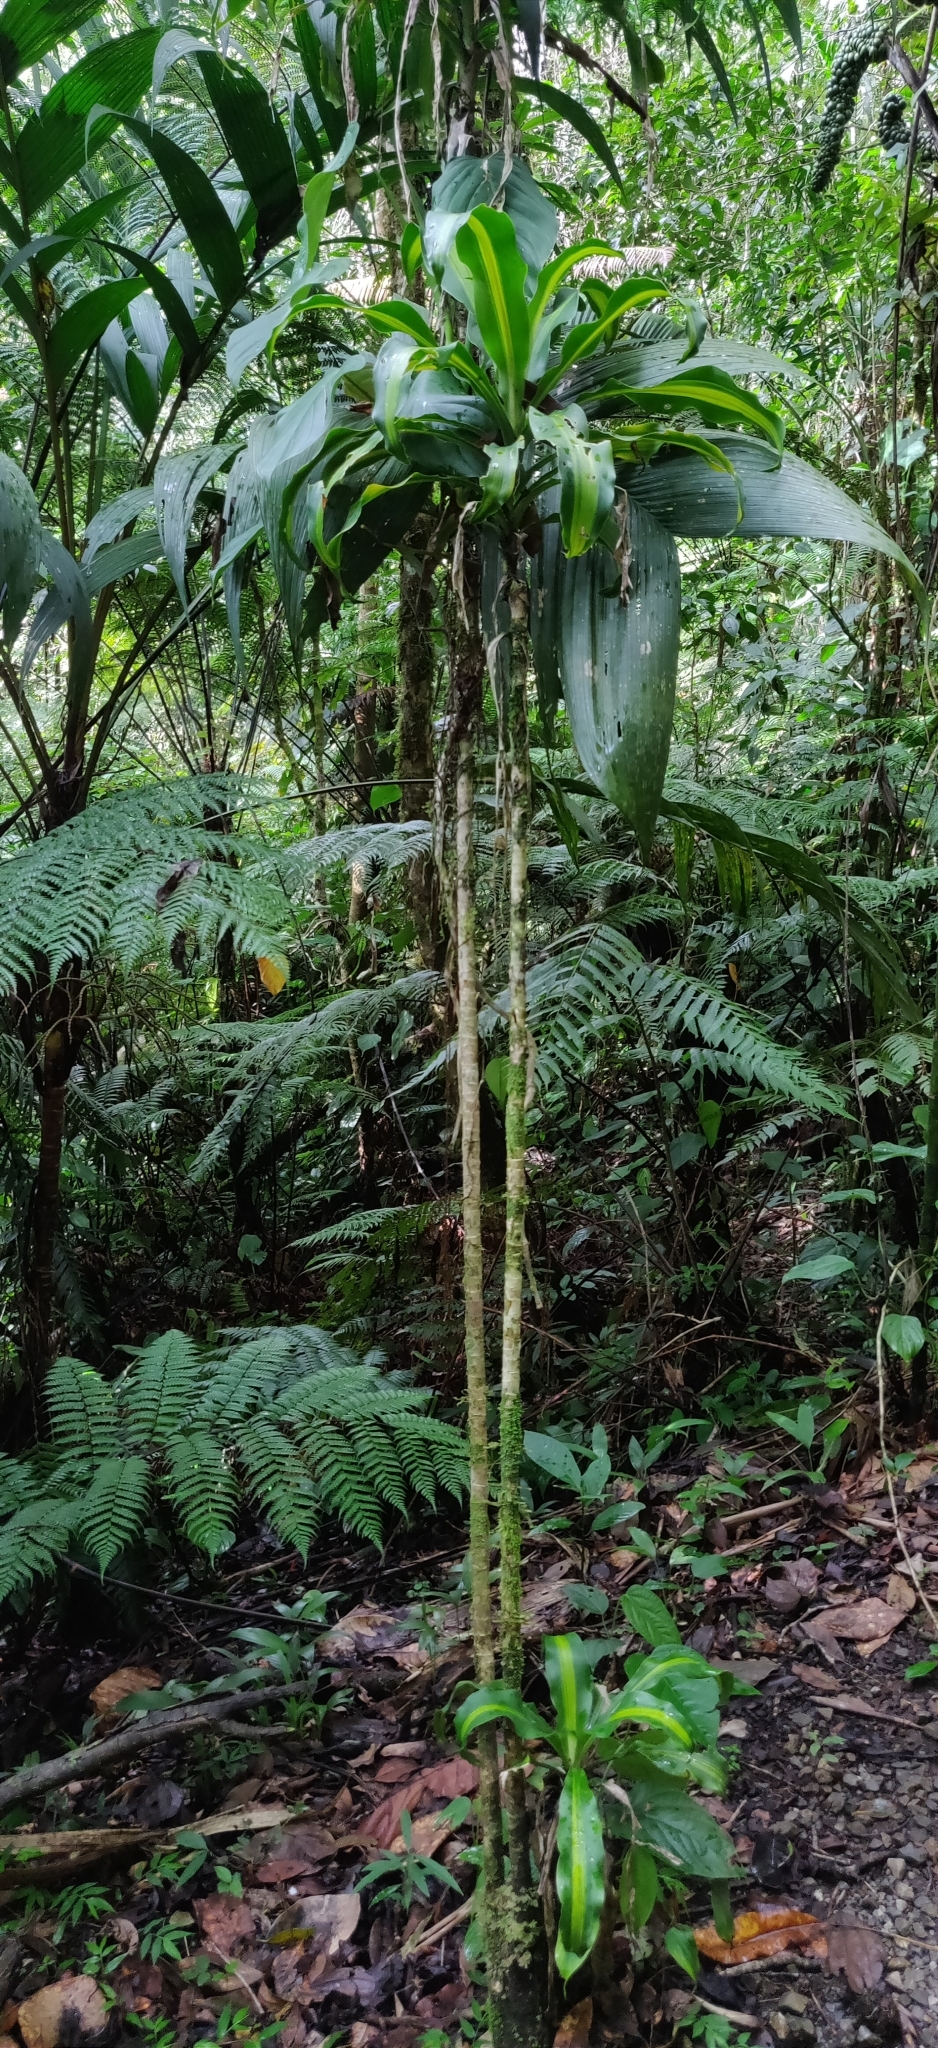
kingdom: Plantae
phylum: Tracheophyta
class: Liliopsida
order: Asparagales
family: Asparagaceae
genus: Dracaena
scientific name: Dracaena fragrans
